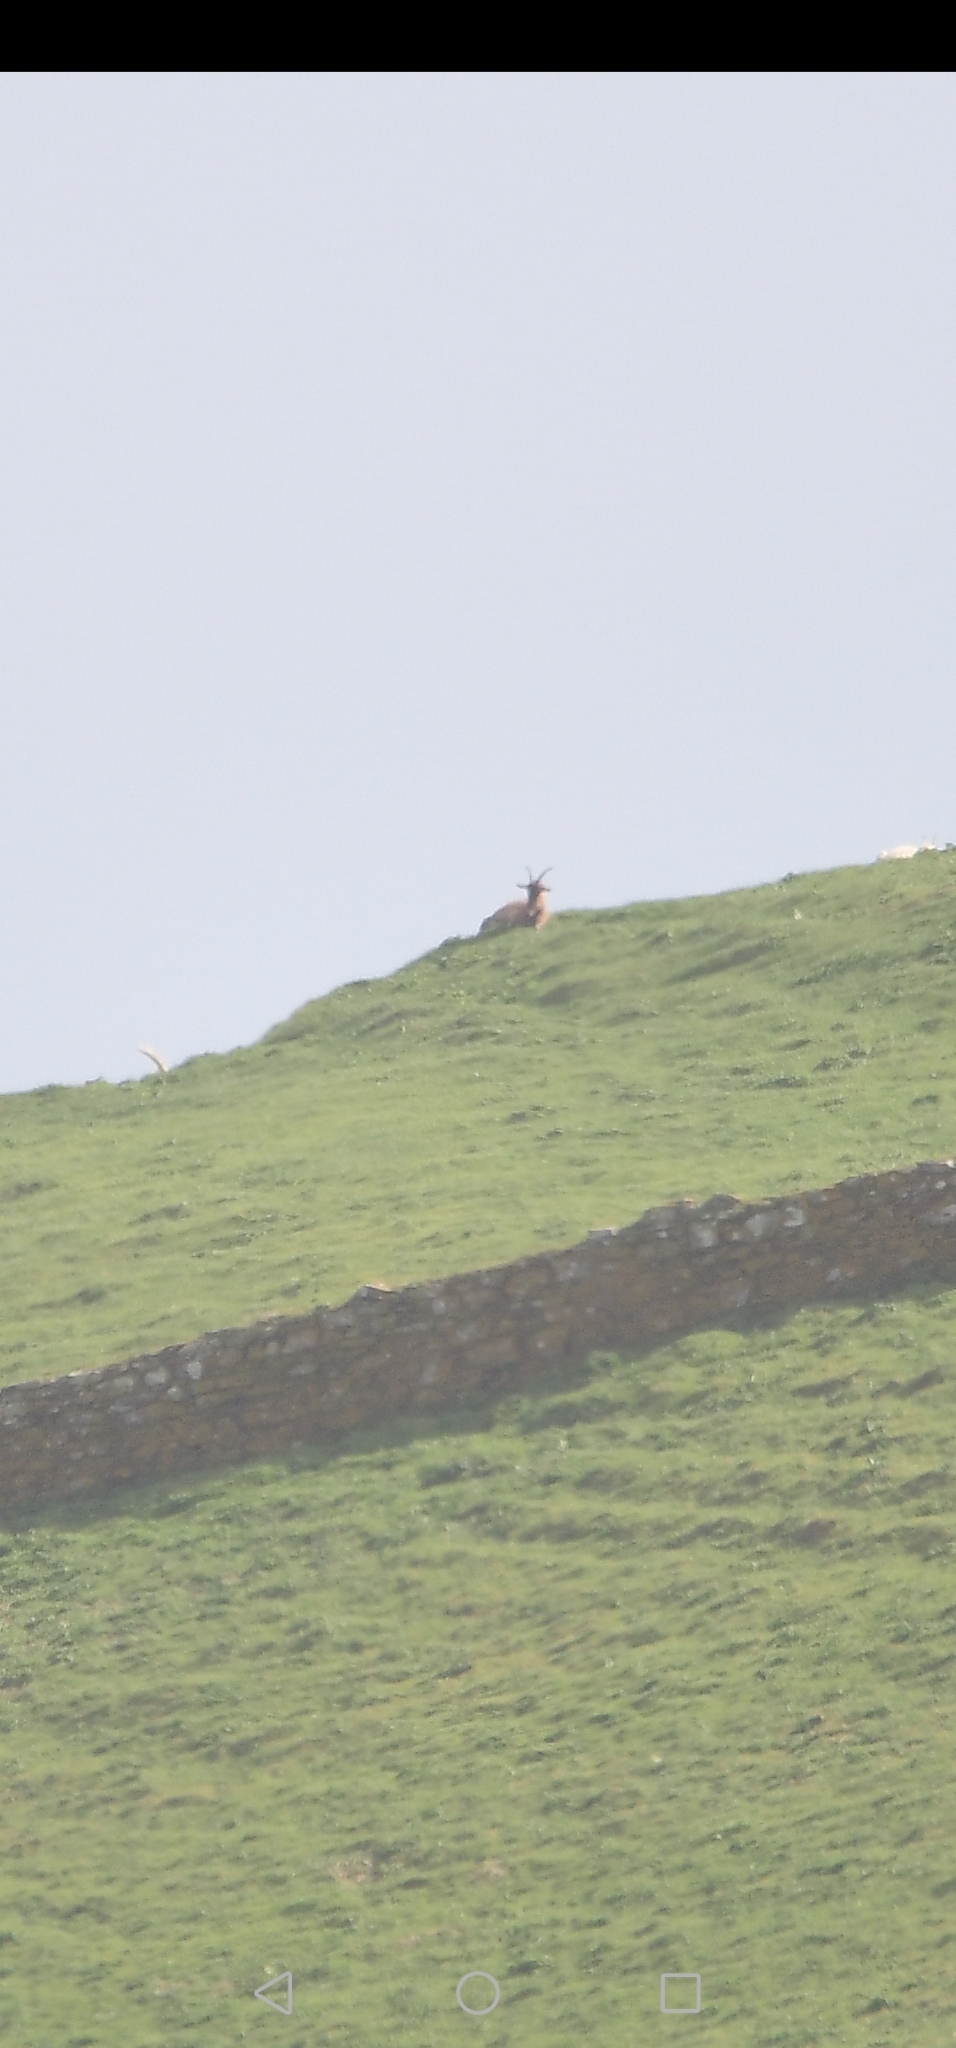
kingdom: Animalia
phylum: Chordata
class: Mammalia
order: Artiodactyla
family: Bovidae
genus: Capra
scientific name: Capra hircus
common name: Domestic goat
